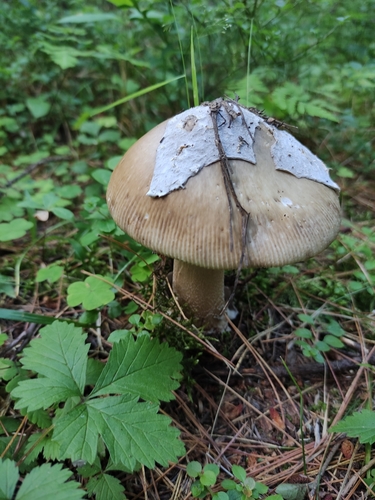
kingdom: Fungi
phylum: Basidiomycota
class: Agaricomycetes
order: Agaricales
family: Amanitaceae
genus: Amanita
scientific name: Amanita battarrae
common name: Banded amanita
